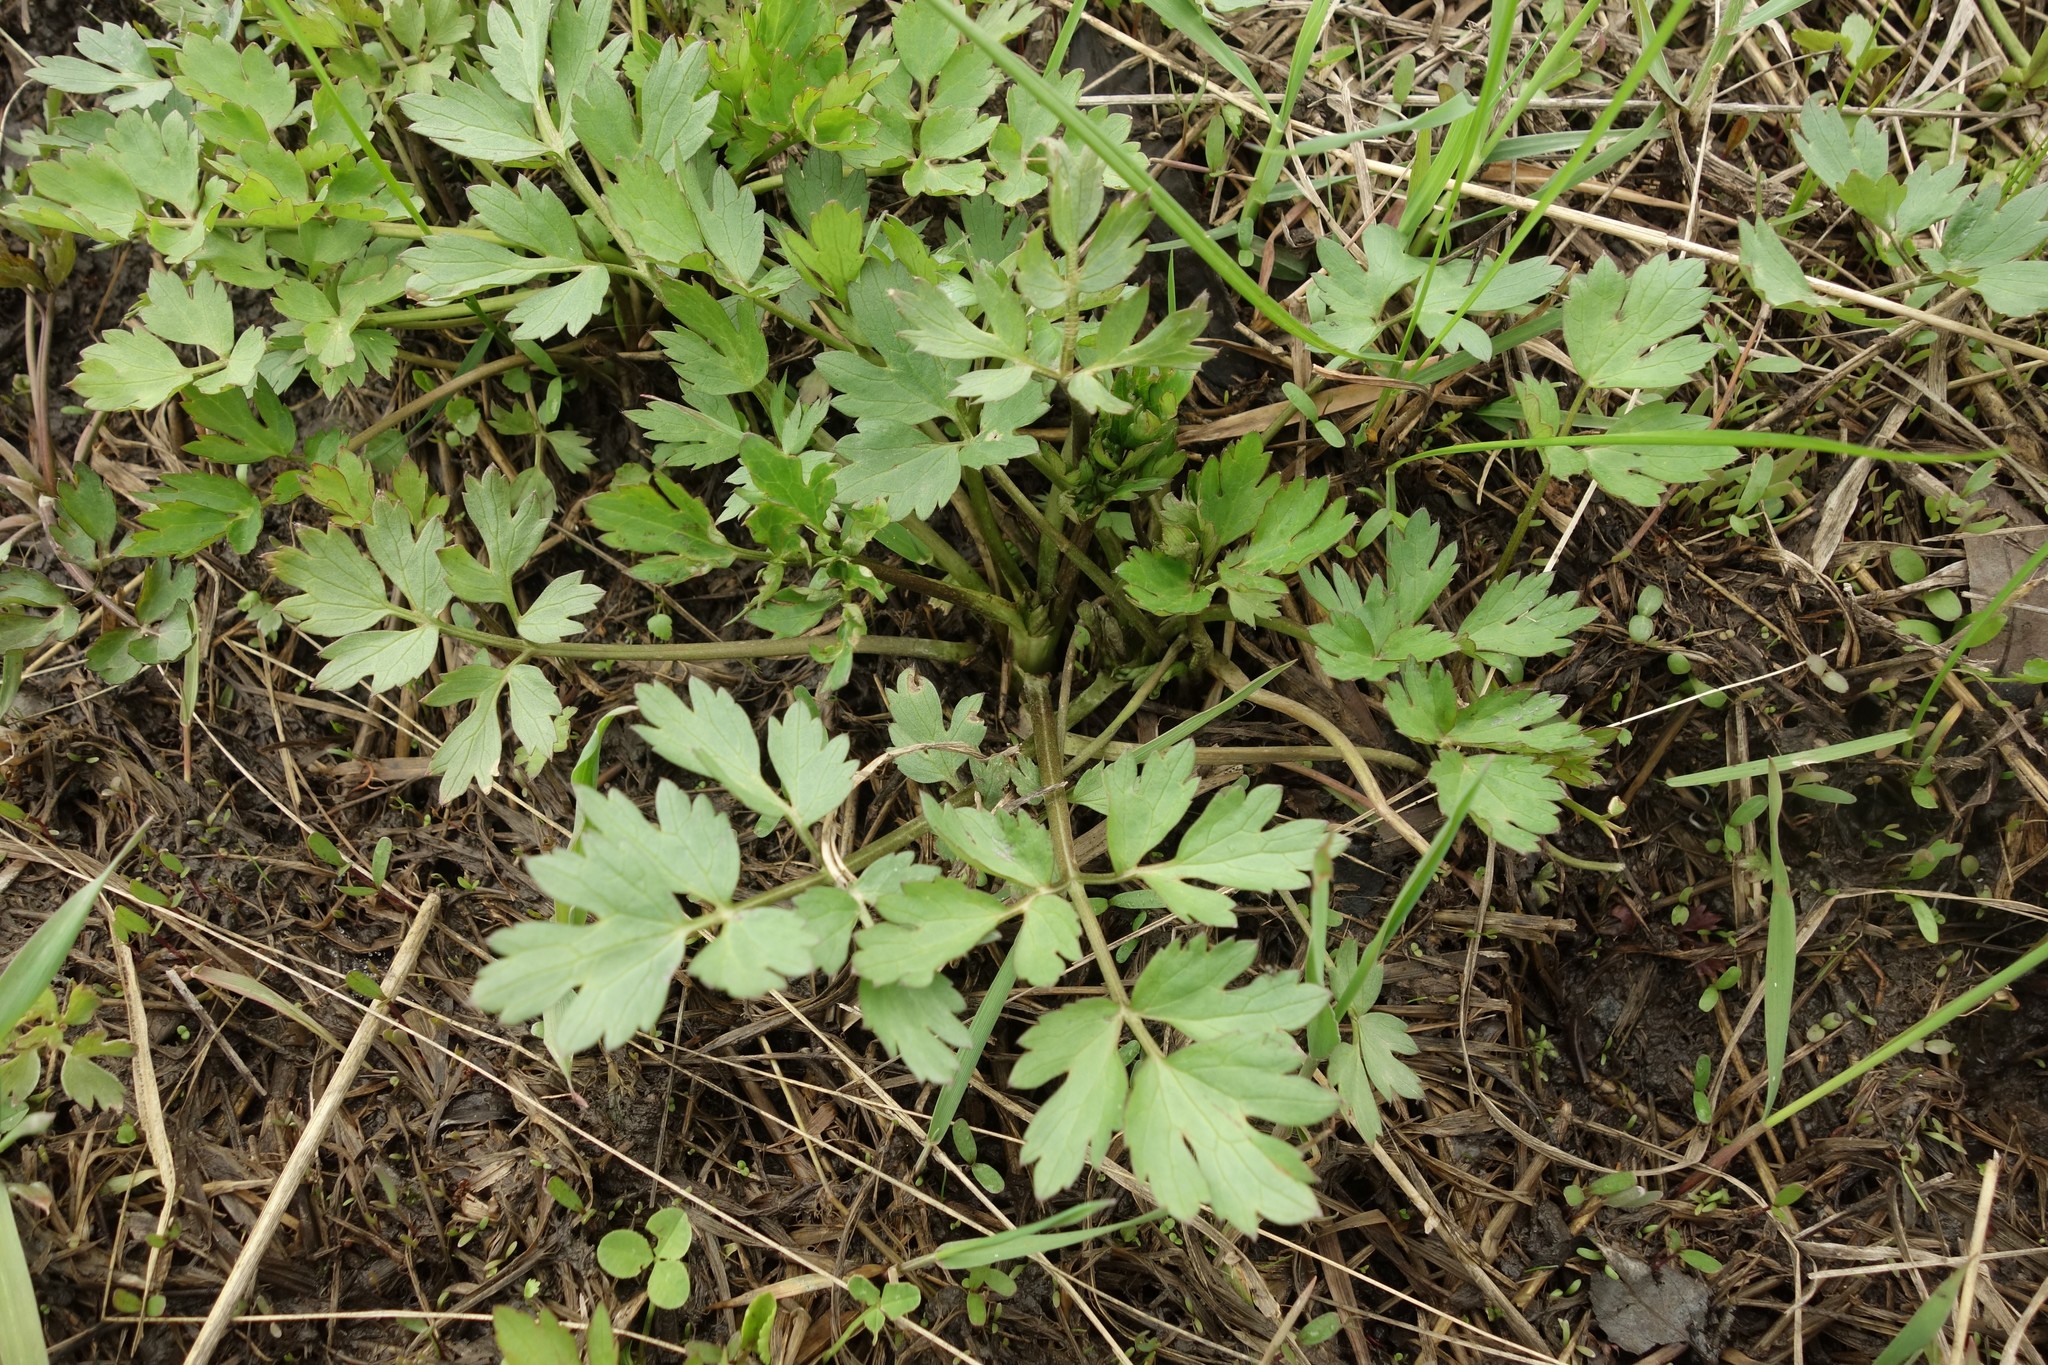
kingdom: Plantae
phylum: Tracheophyta
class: Magnoliopsida
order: Ranunculales
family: Ranunculaceae
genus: Ranunculus
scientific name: Ranunculus repens
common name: Creeping buttercup
